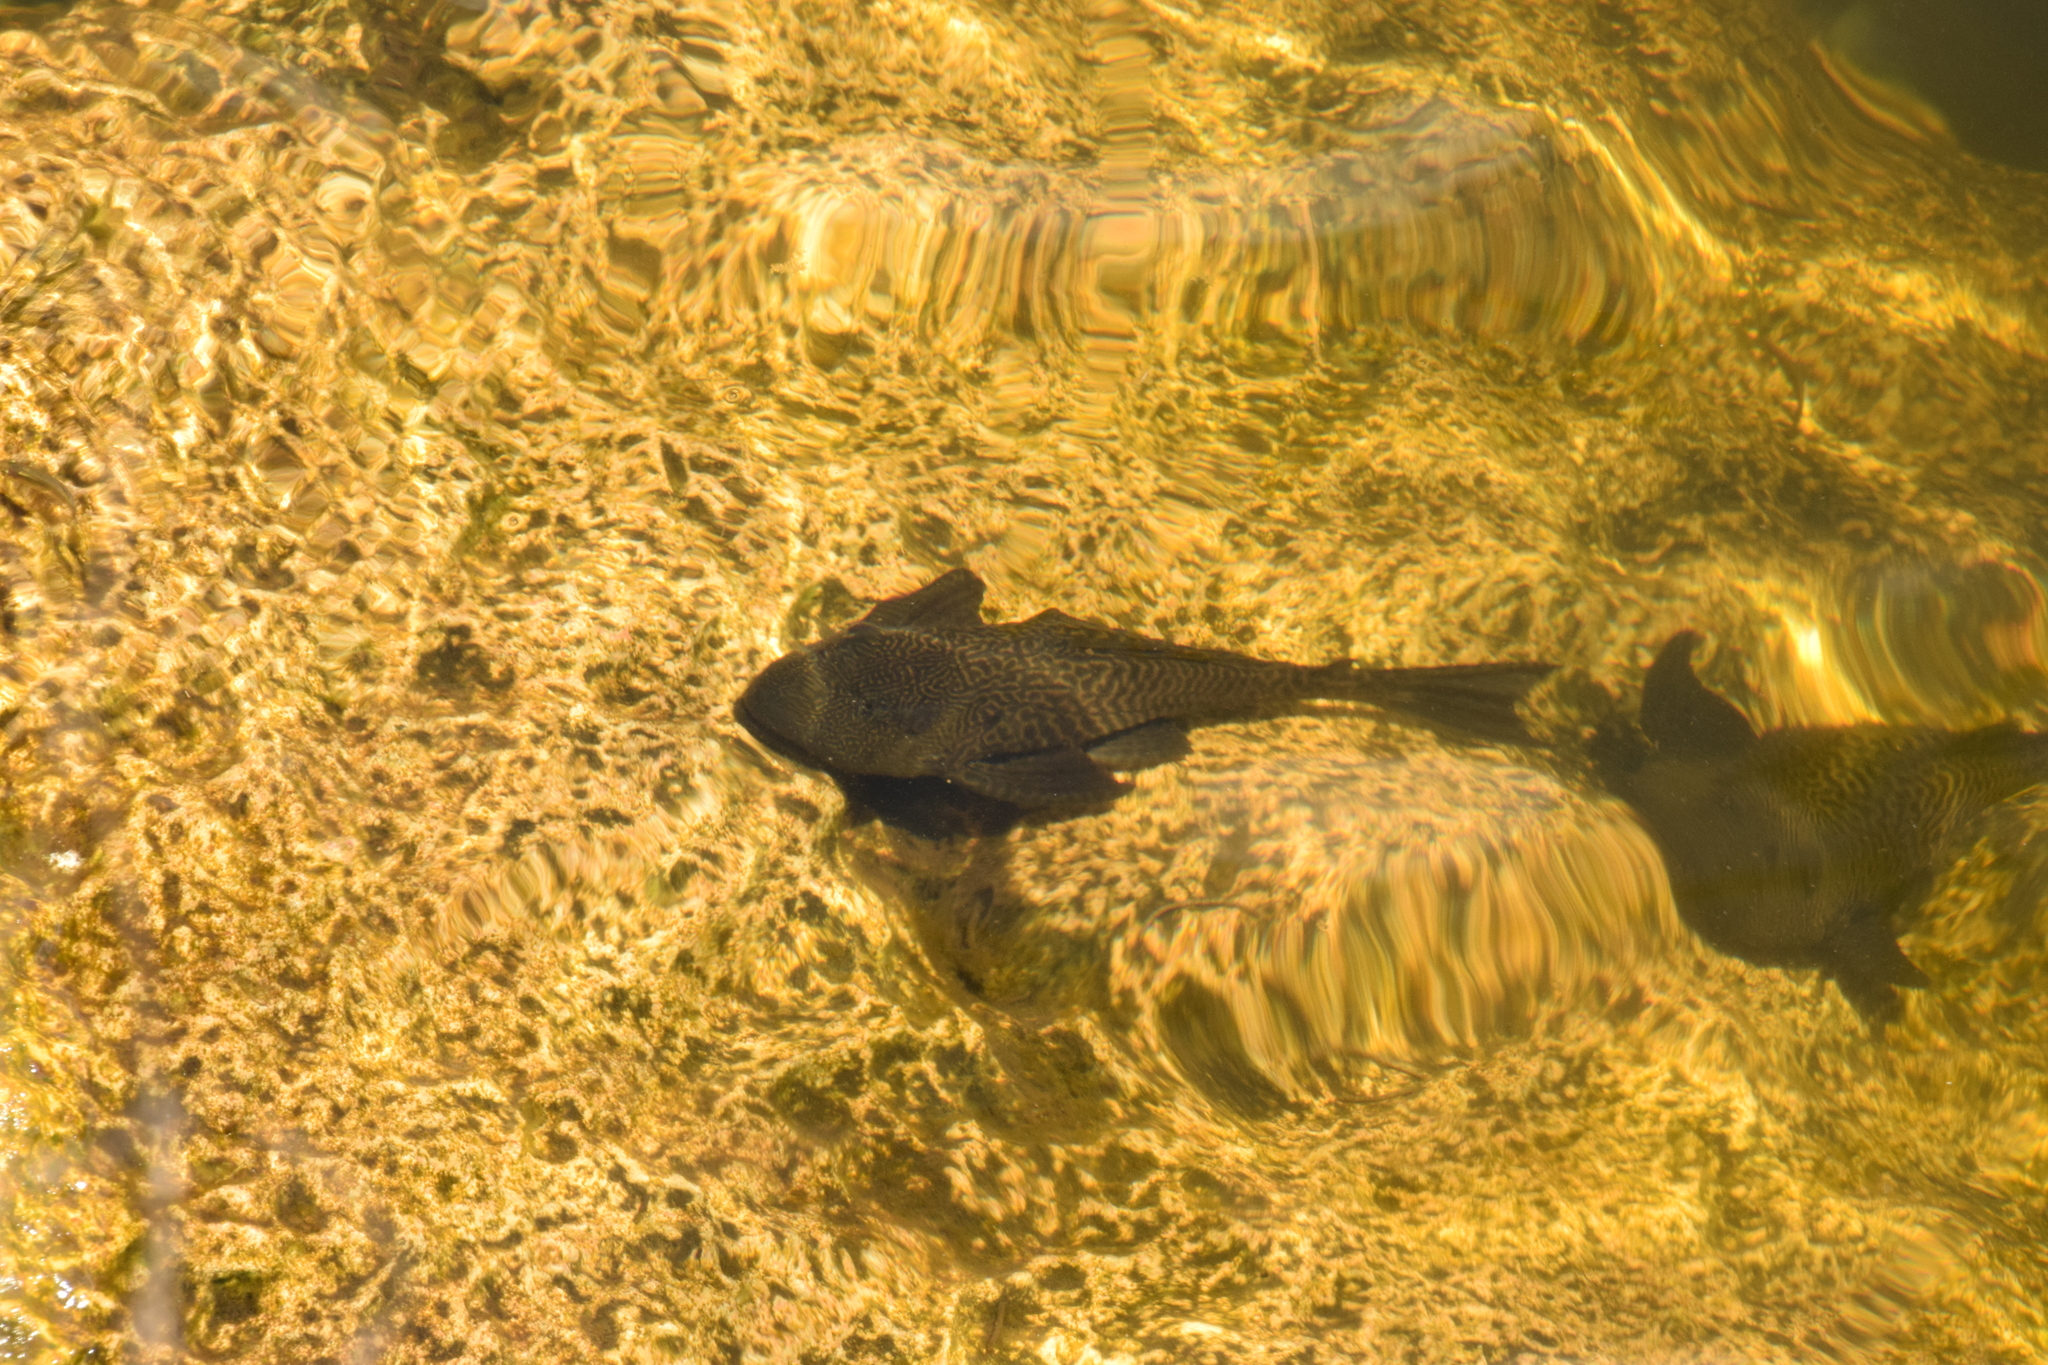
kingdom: Animalia
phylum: Chordata
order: Siluriformes
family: Loricariidae
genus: Pterygoplichthys
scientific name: Pterygoplichthys
